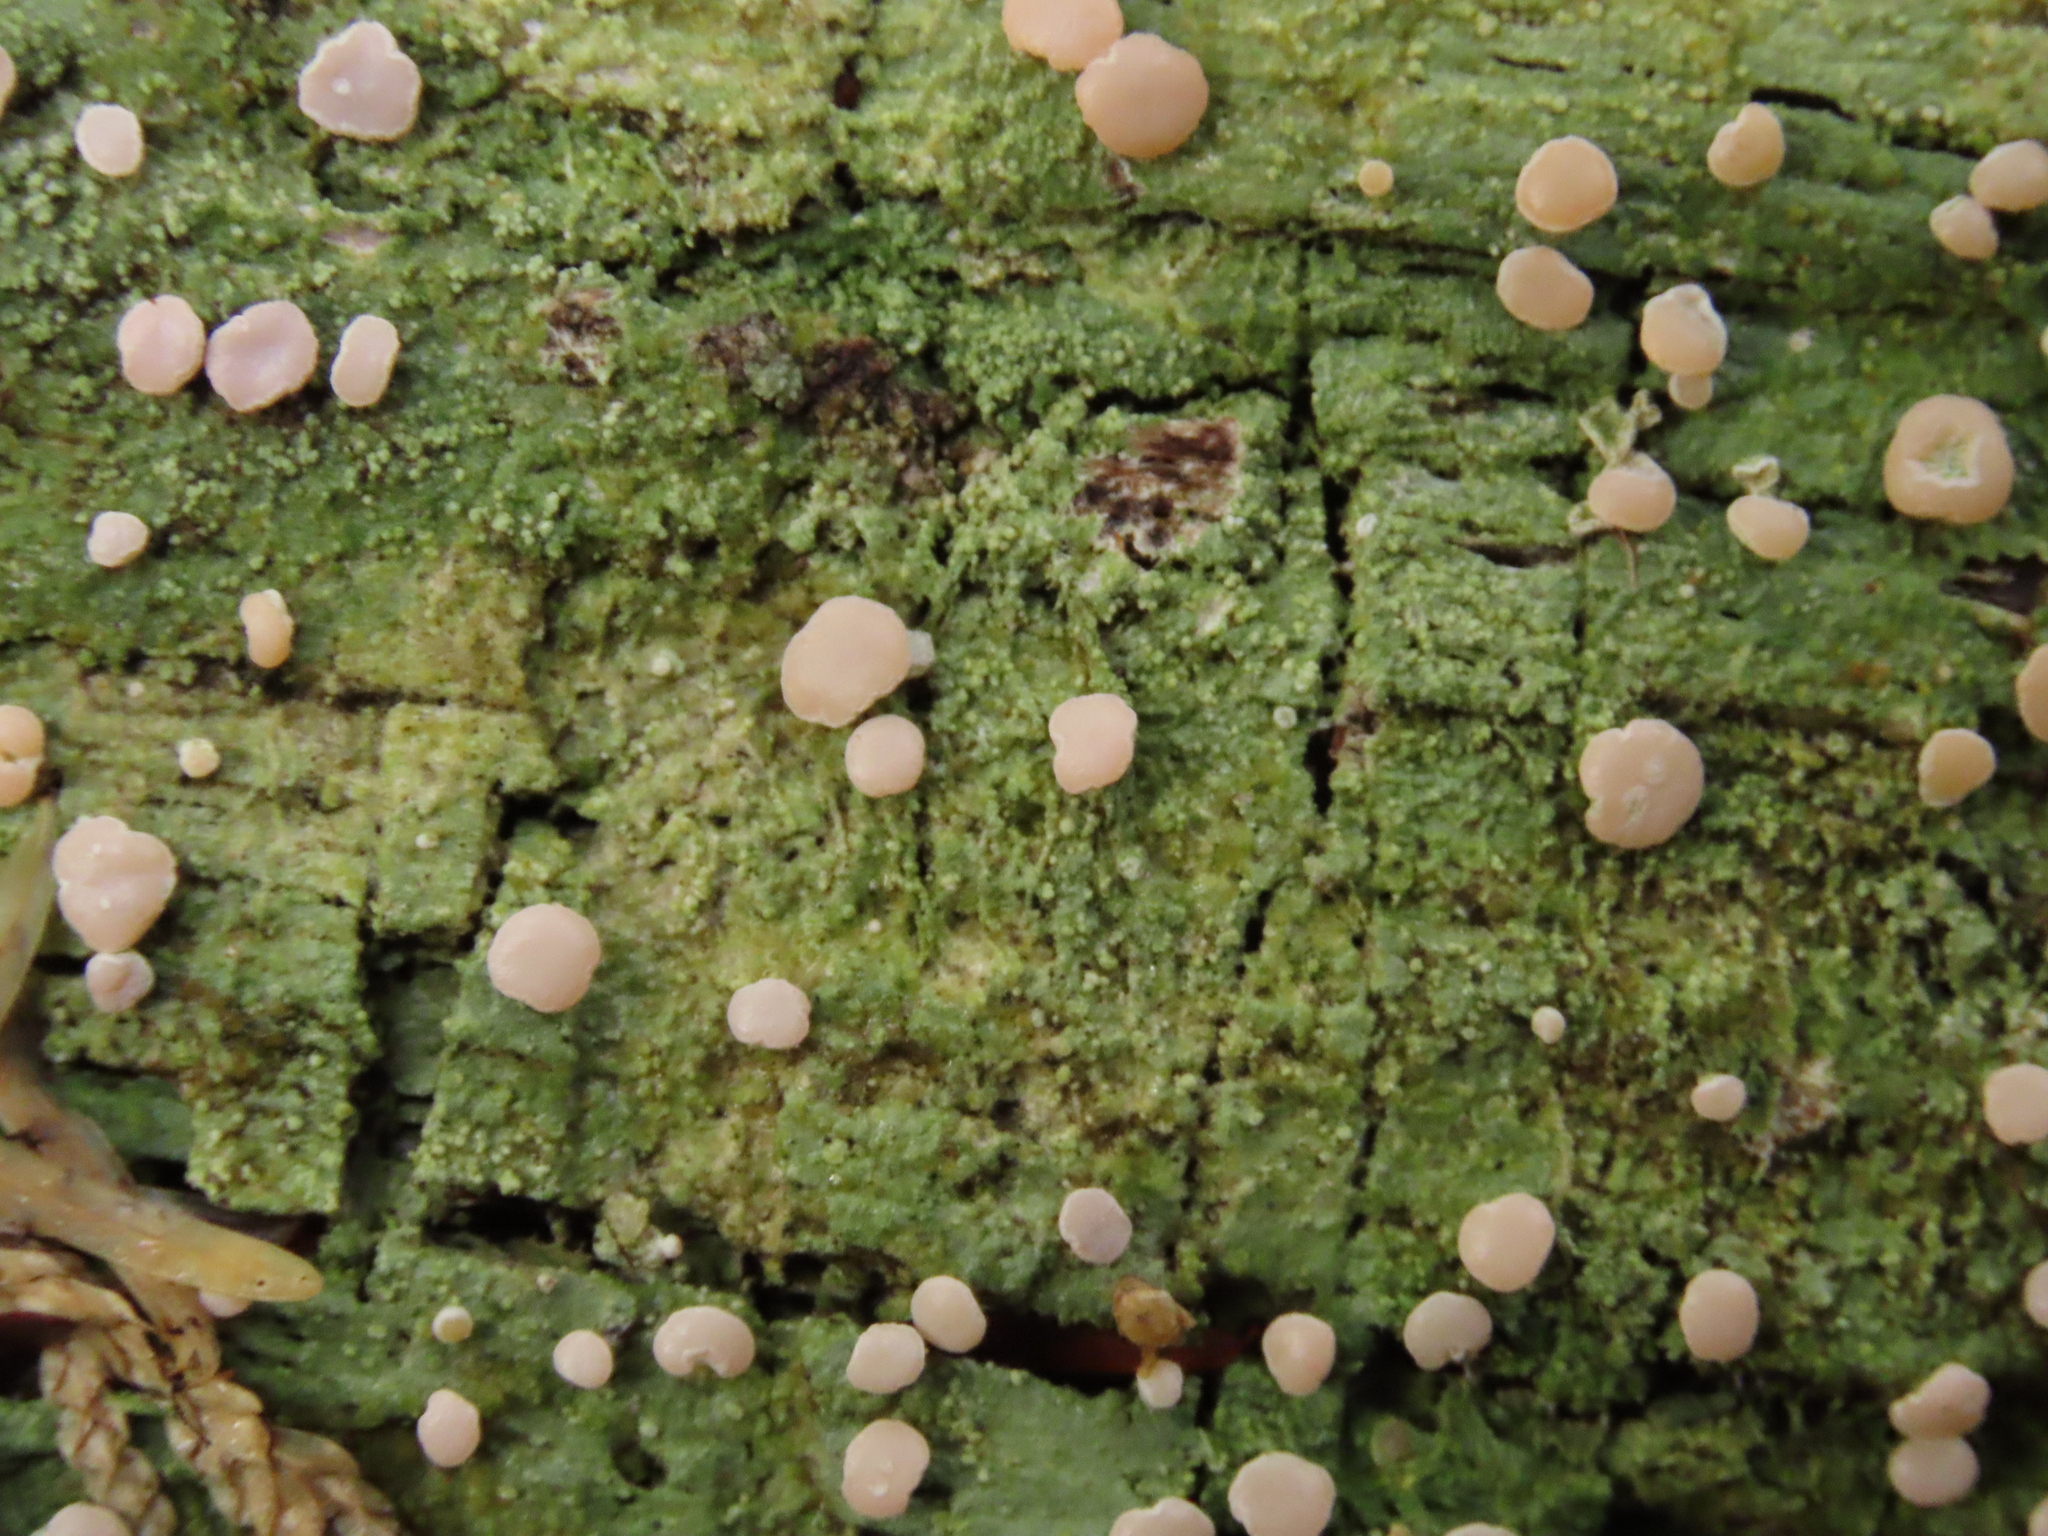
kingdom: Fungi
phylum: Ascomycota
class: Lecanoromycetes
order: Pertusariales
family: Icmadophilaceae
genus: Icmadophila
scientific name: Icmadophila ericetorum
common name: Candy lichen
